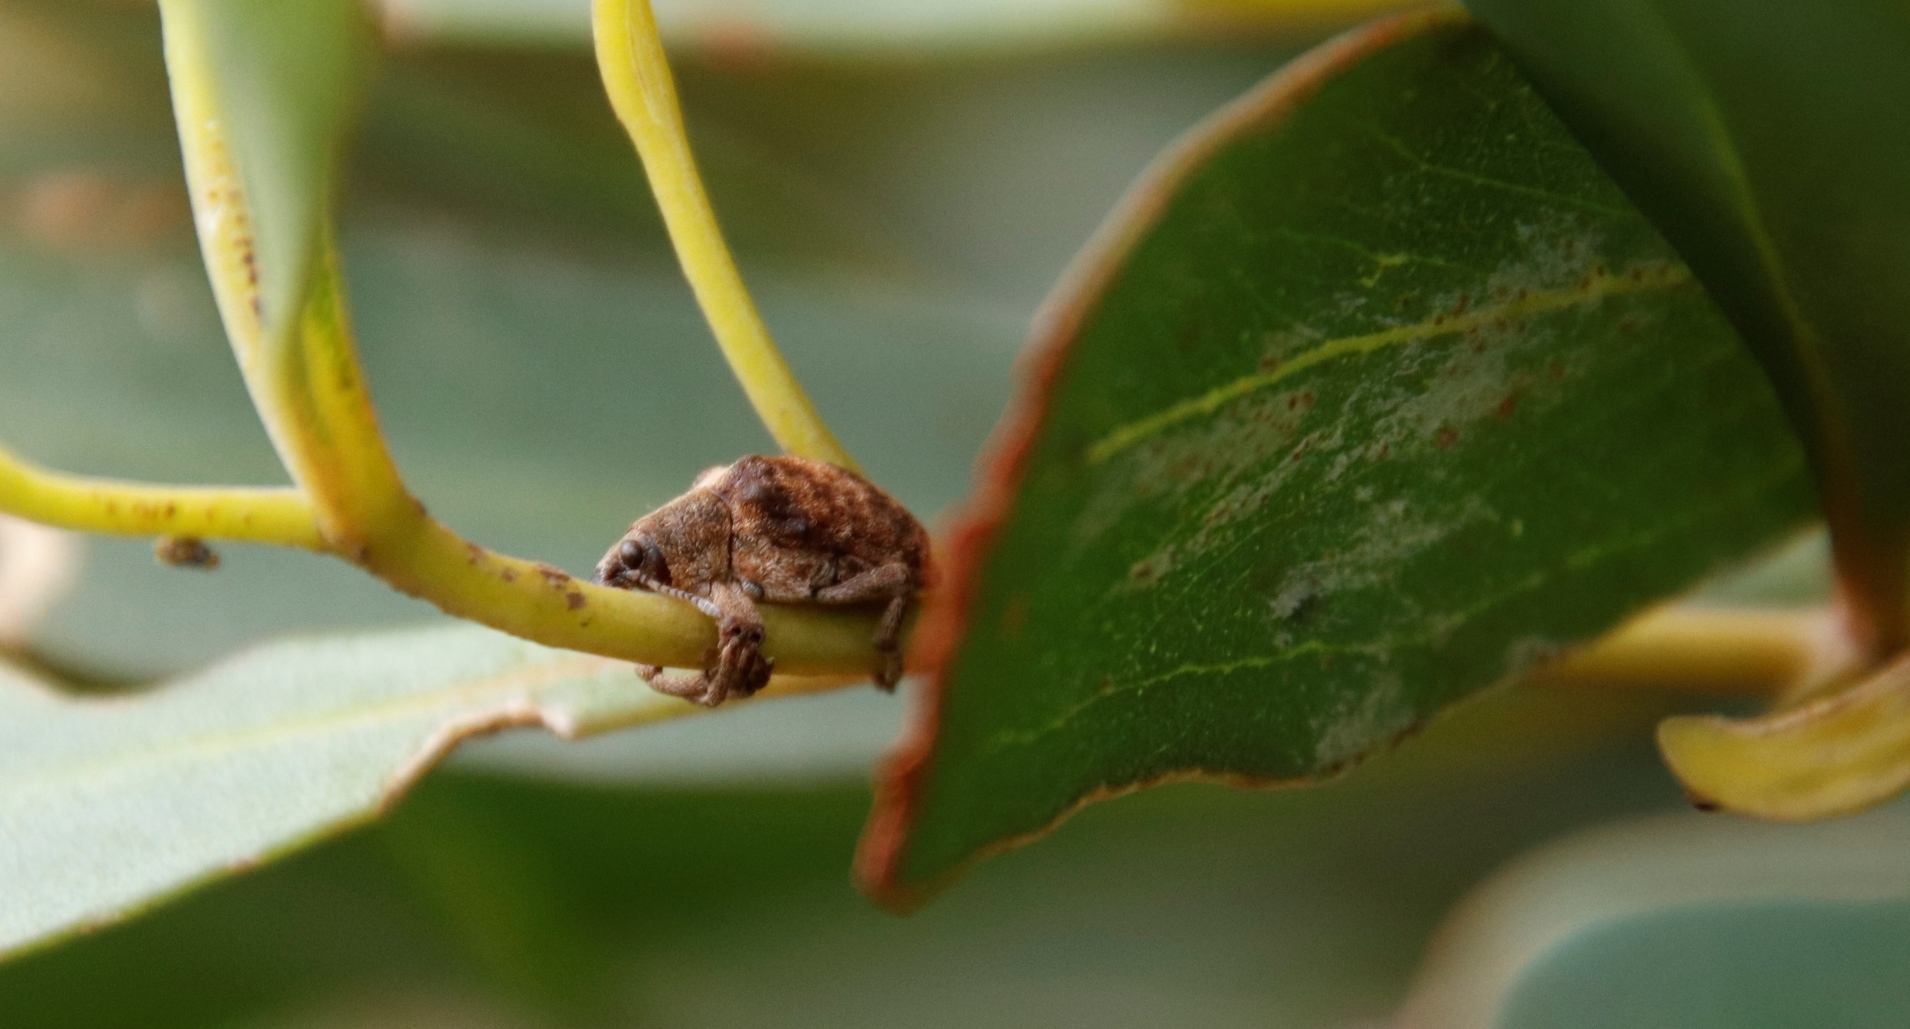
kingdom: Animalia
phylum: Arthropoda
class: Insecta
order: Coleoptera
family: Curculionidae
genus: Gonipterus
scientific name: Gonipterus
